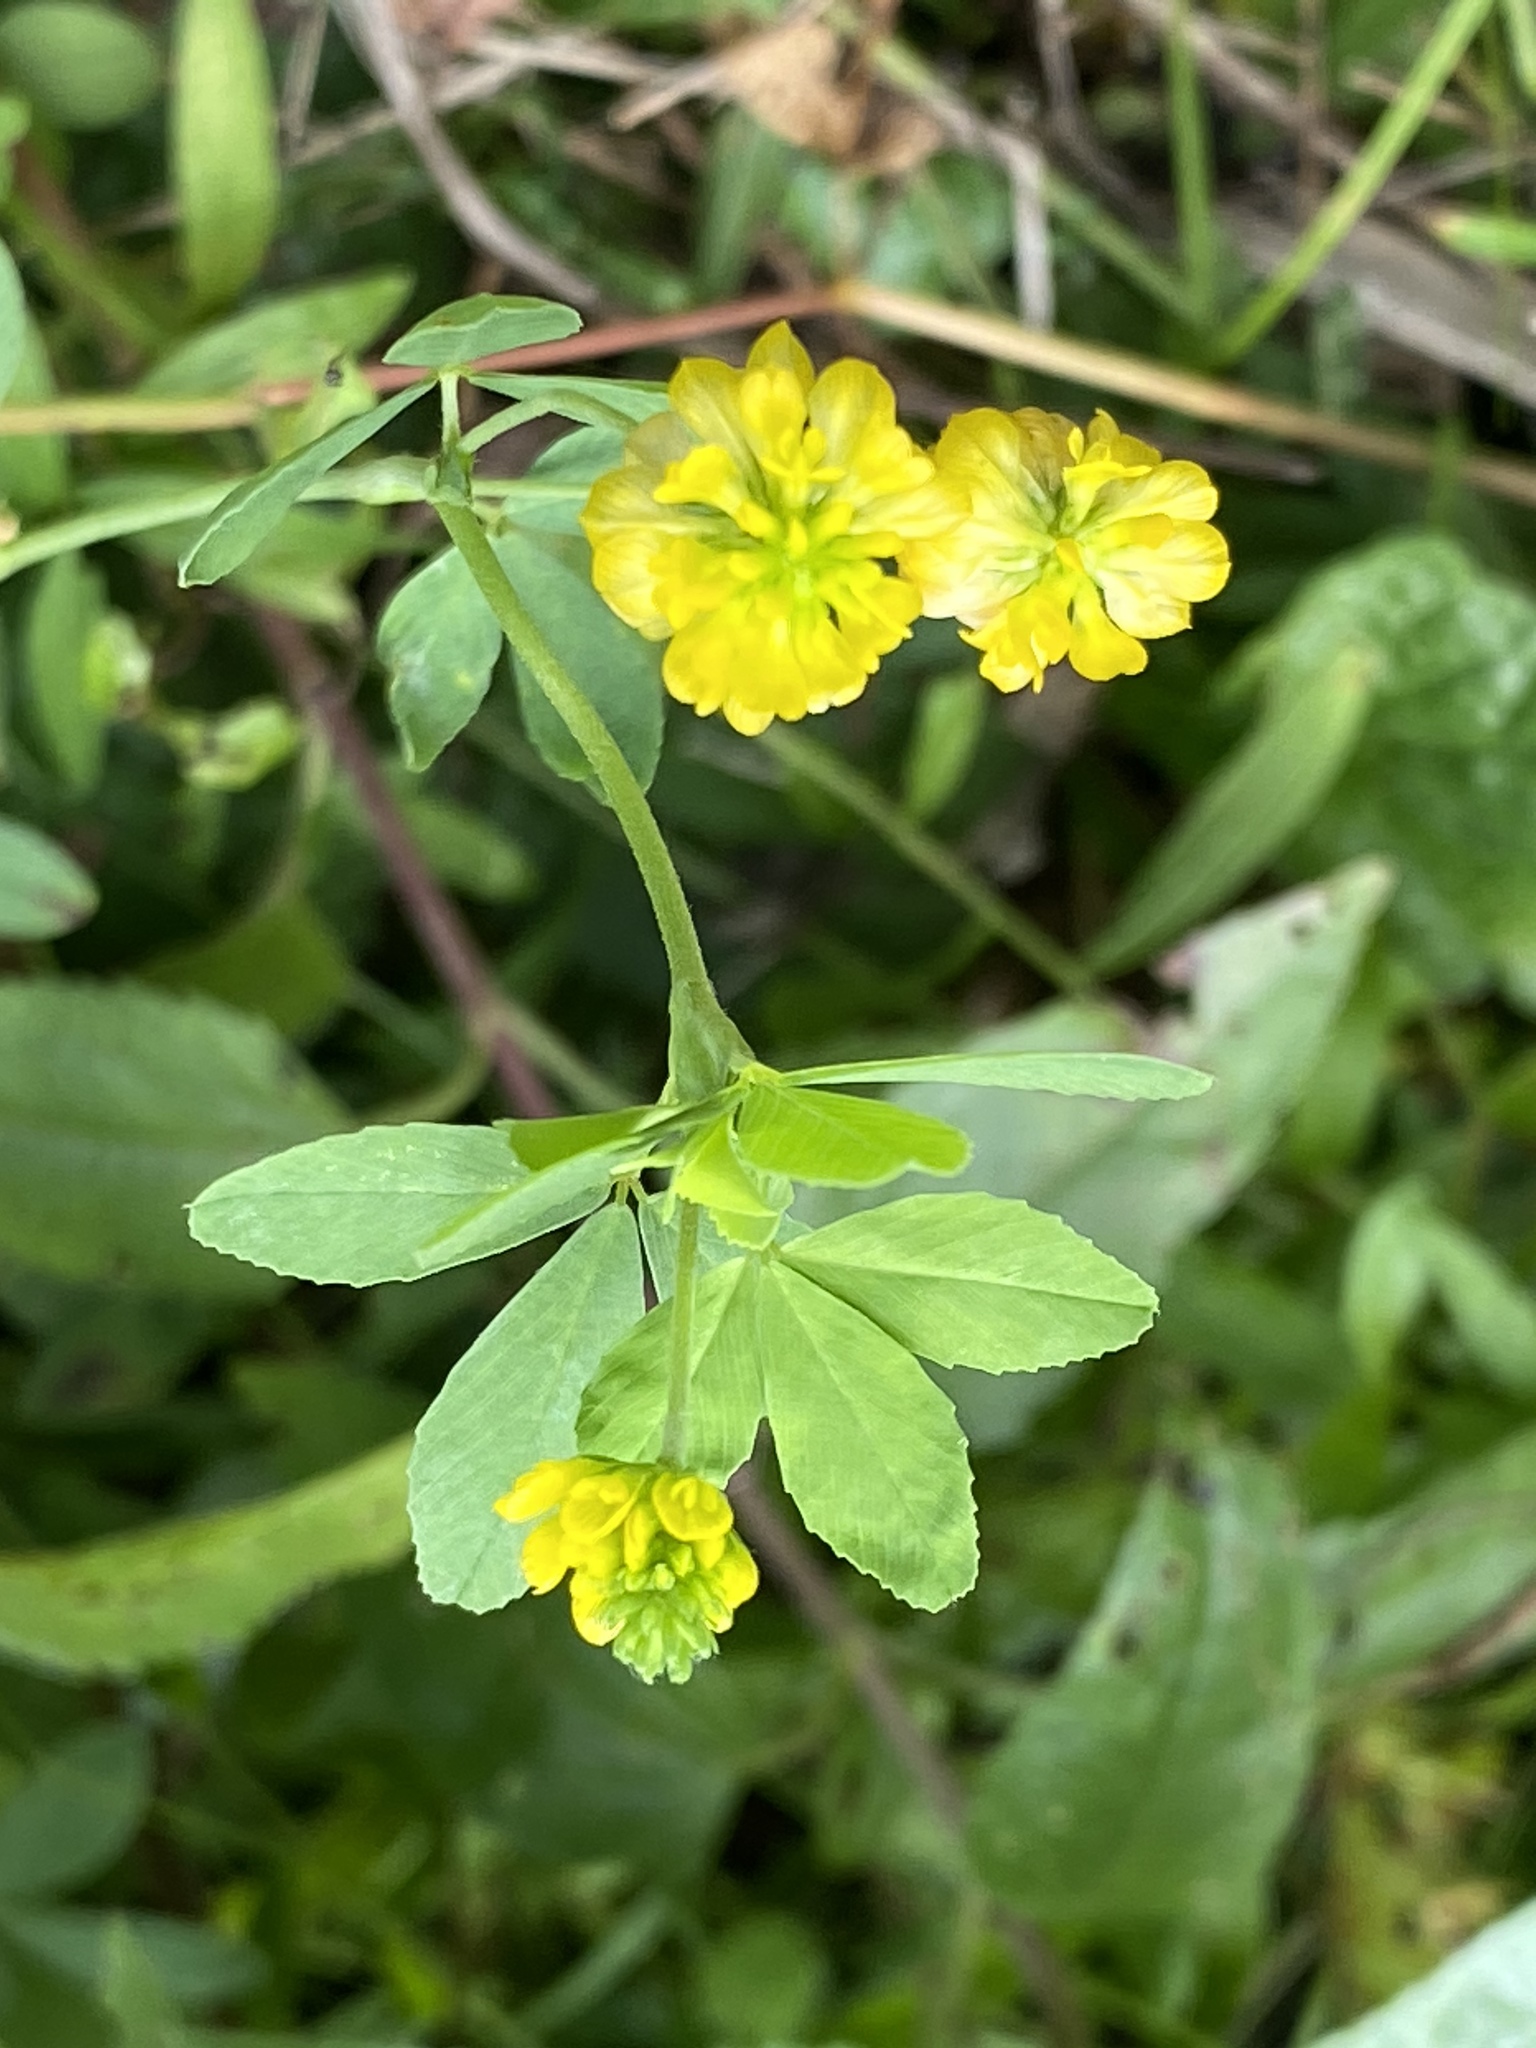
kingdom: Plantae
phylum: Tracheophyta
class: Magnoliopsida
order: Fabales
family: Fabaceae
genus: Trifolium
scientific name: Trifolium aureum
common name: Golden clover
